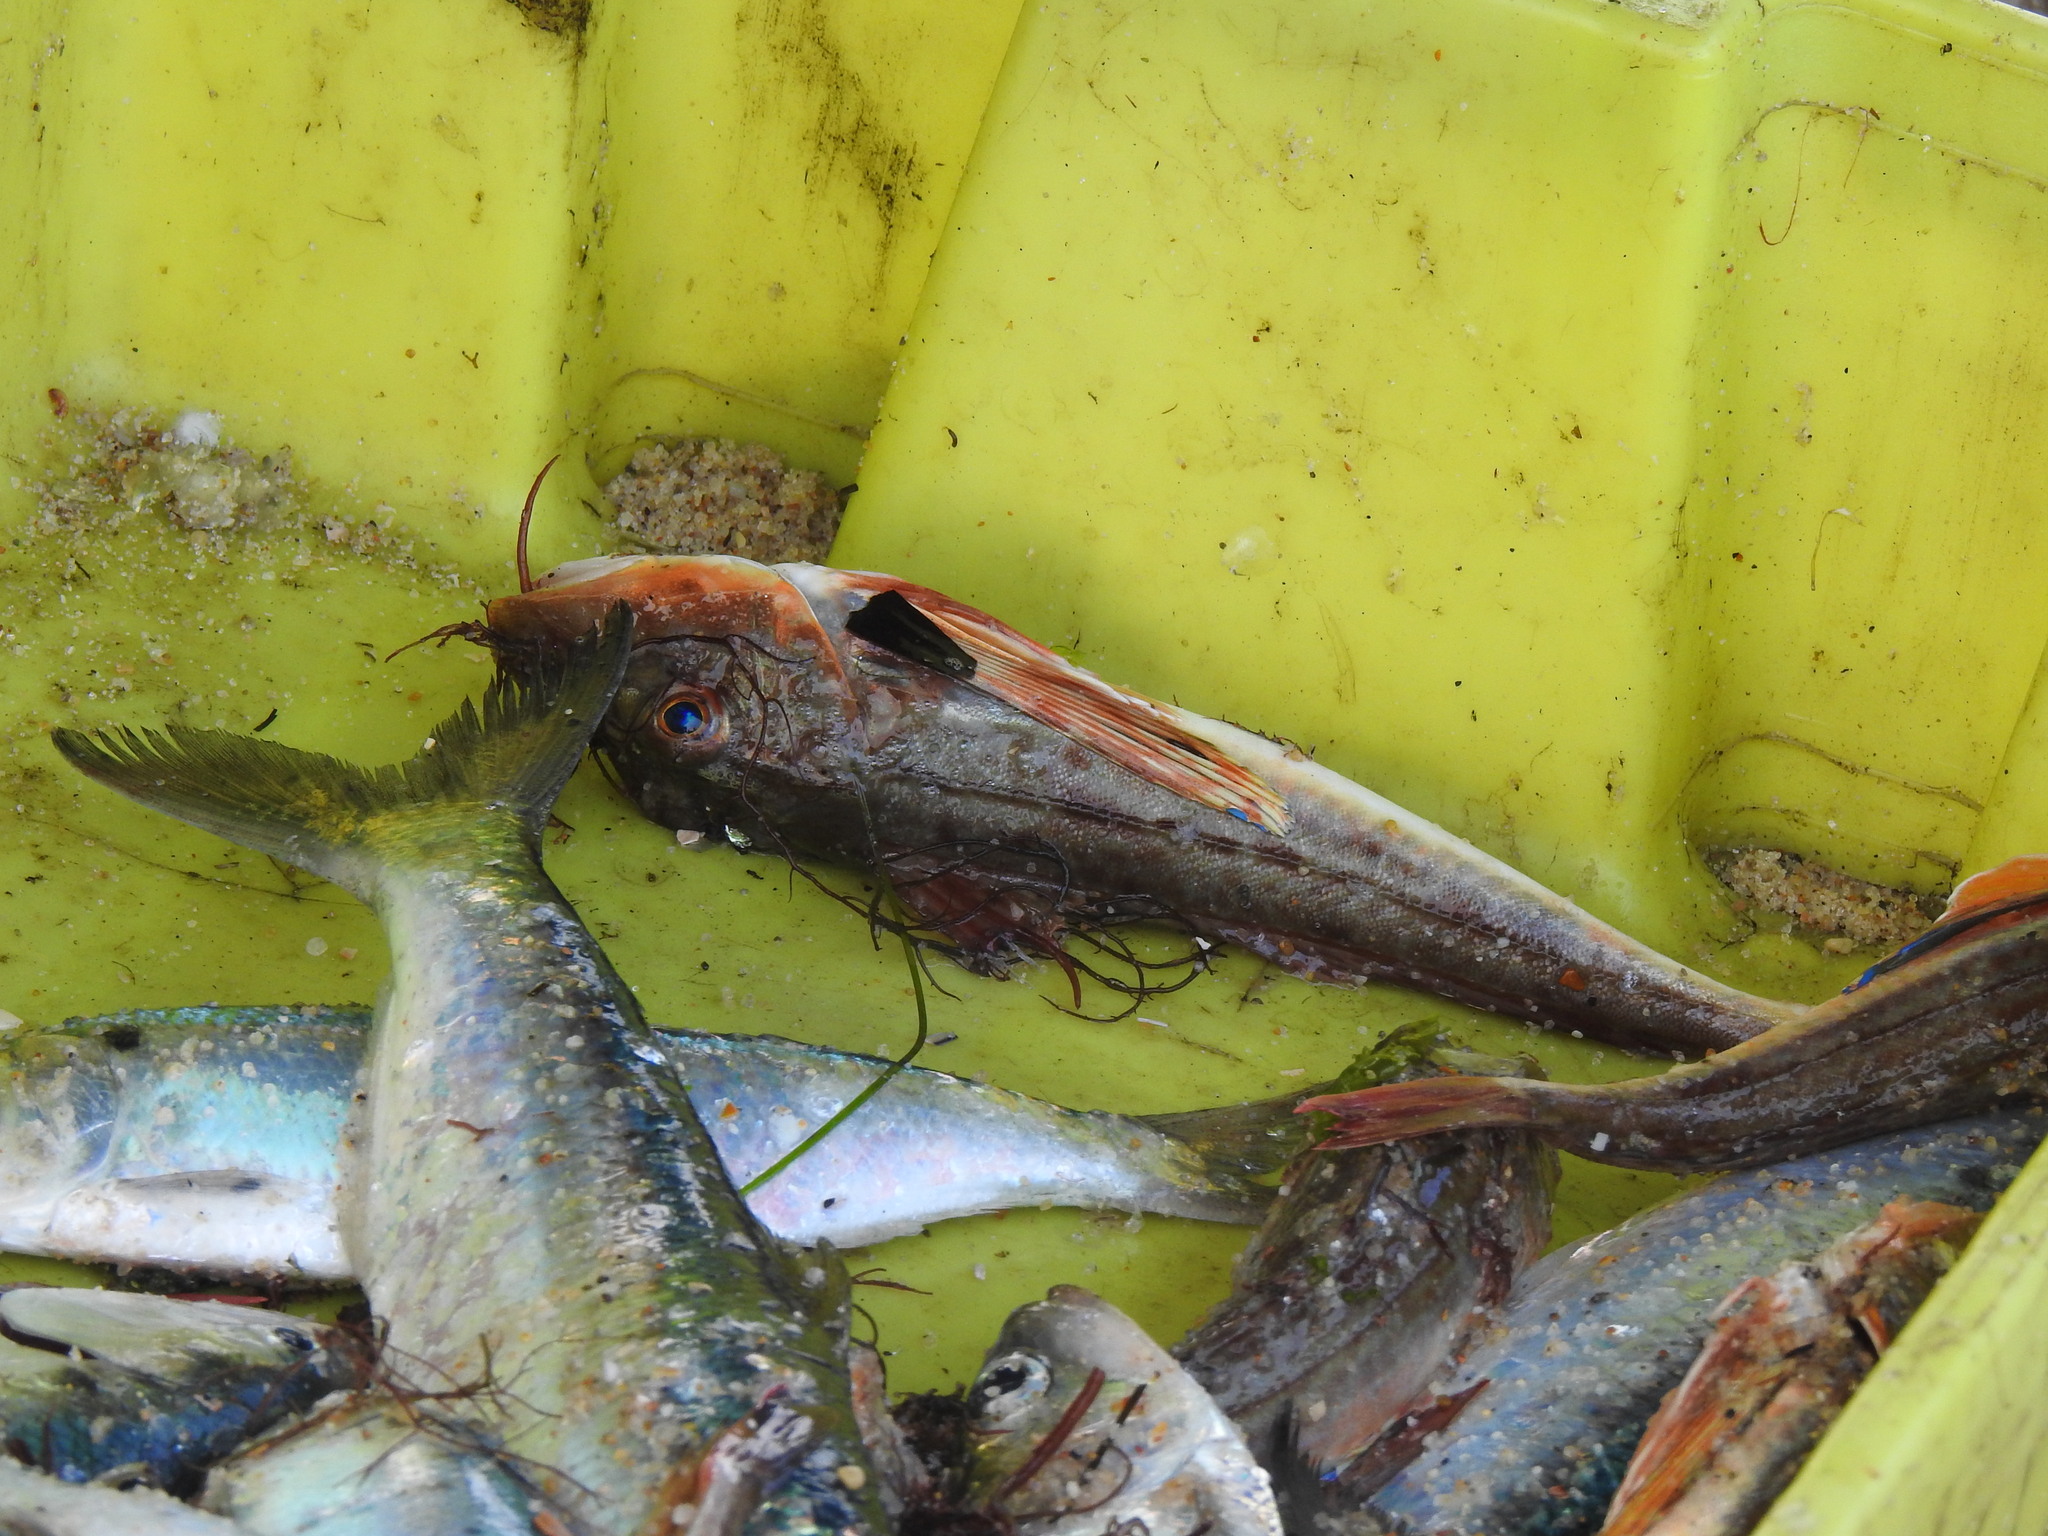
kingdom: Animalia
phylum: Chordata
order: Scorpaeniformes
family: Triglidae
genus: Chelidonichthys
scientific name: Chelidonichthys lucerna
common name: Tub gurnard
